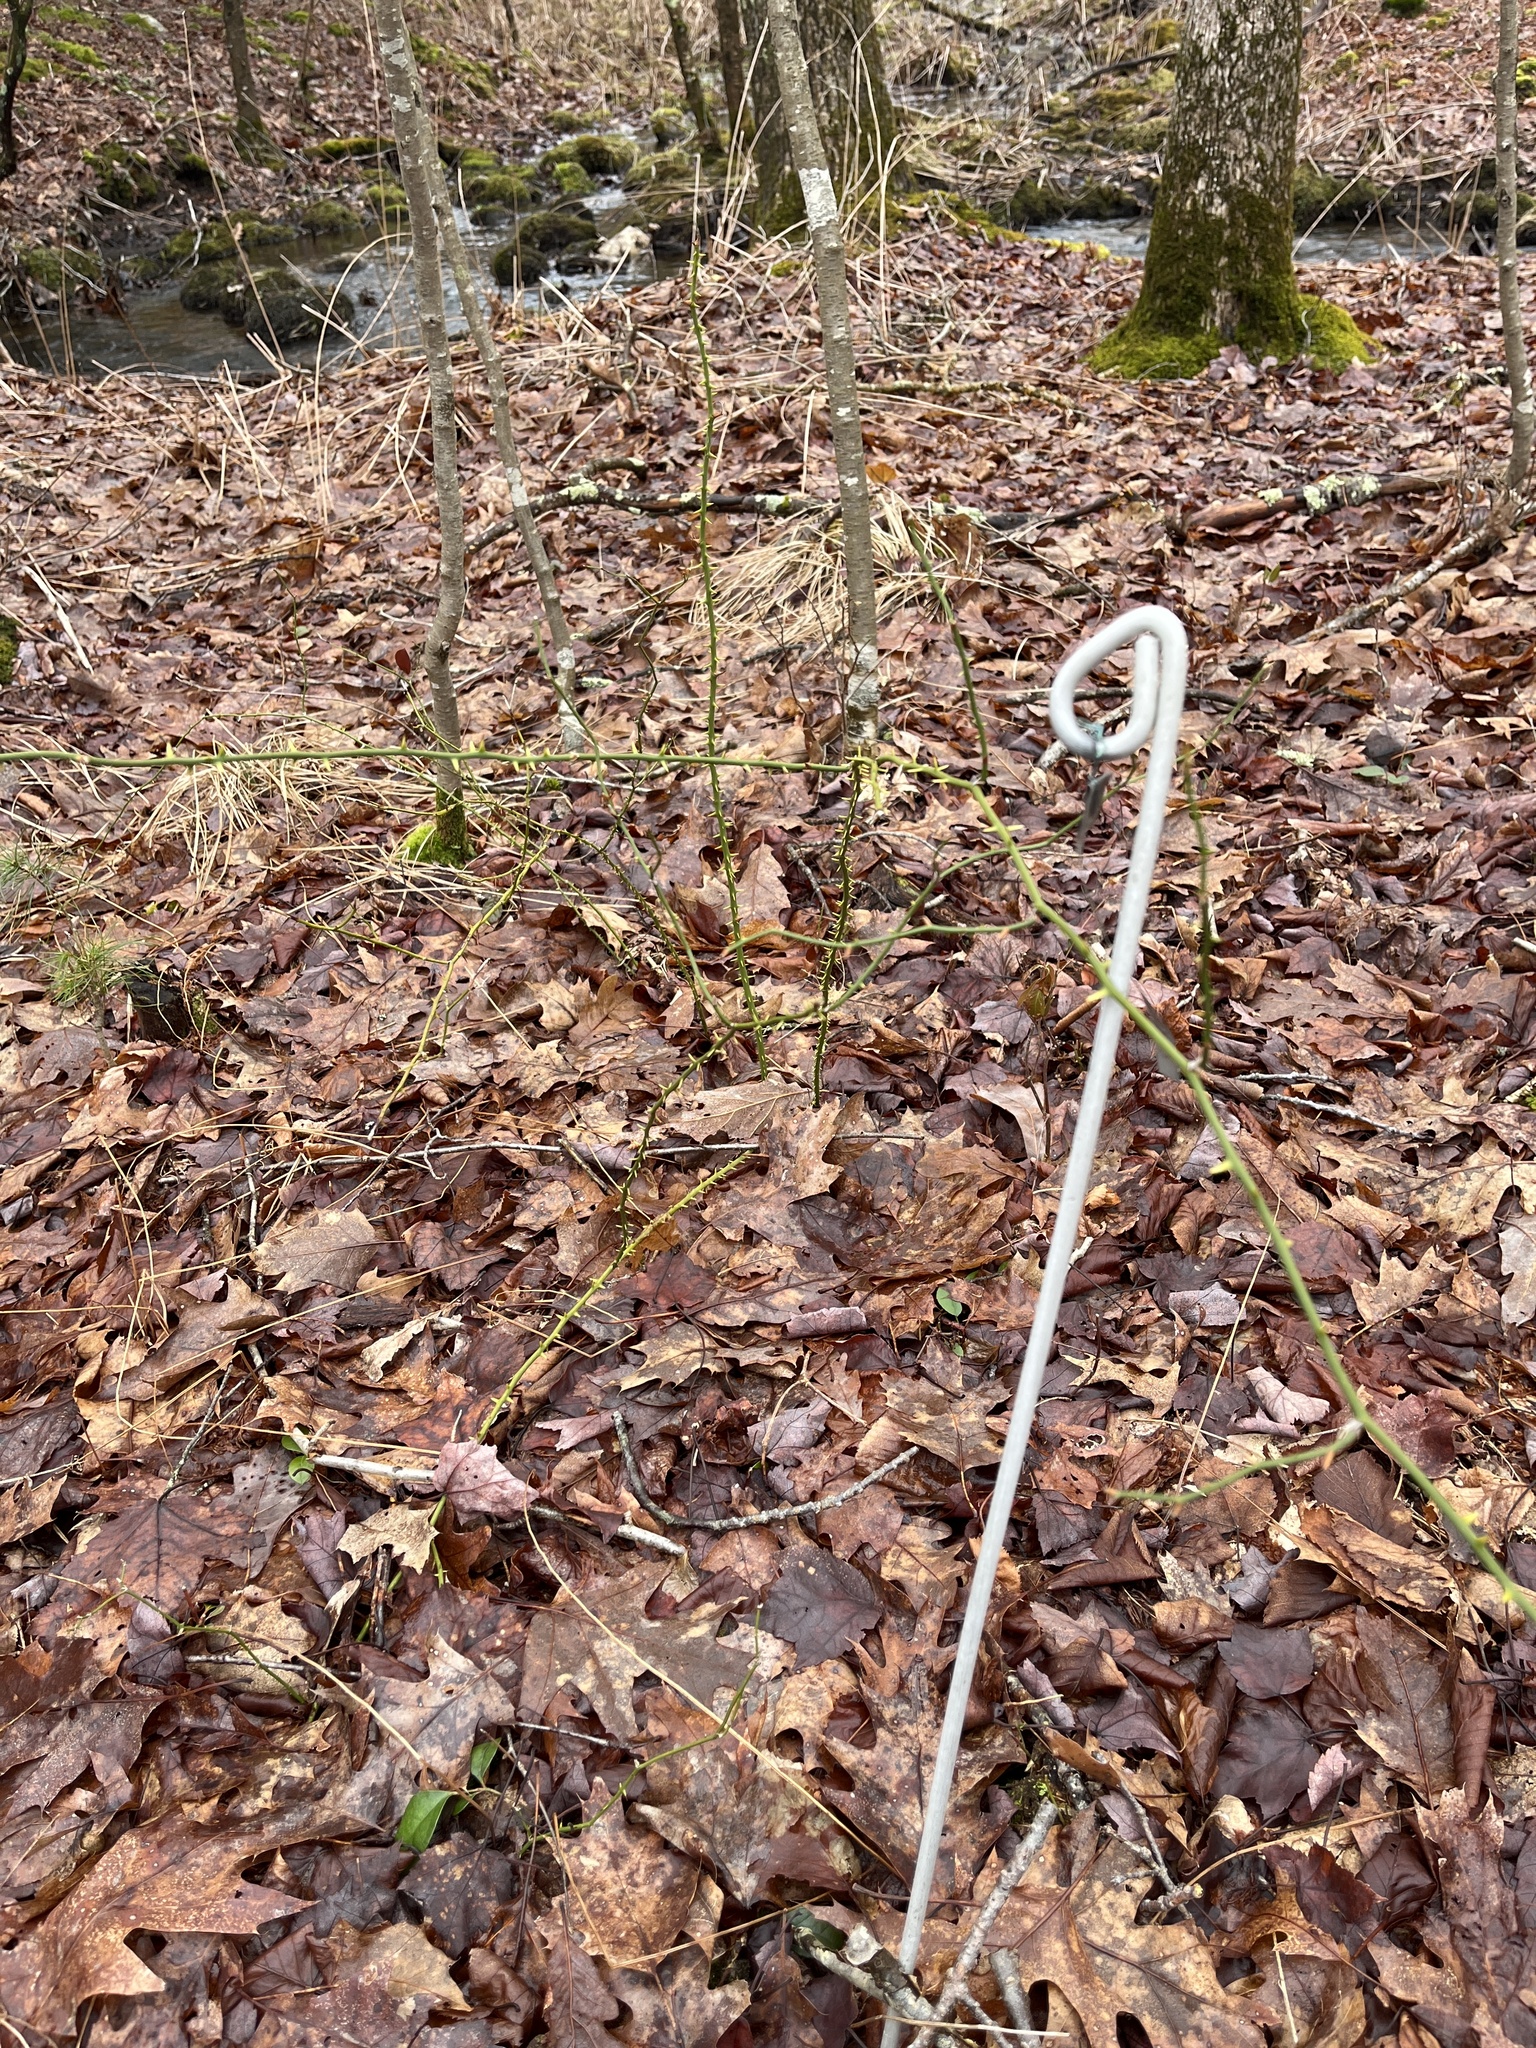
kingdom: Plantae
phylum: Tracheophyta
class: Liliopsida
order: Liliales
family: Smilacaceae
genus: Smilax
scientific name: Smilax rotundifolia
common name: Bullbriar
